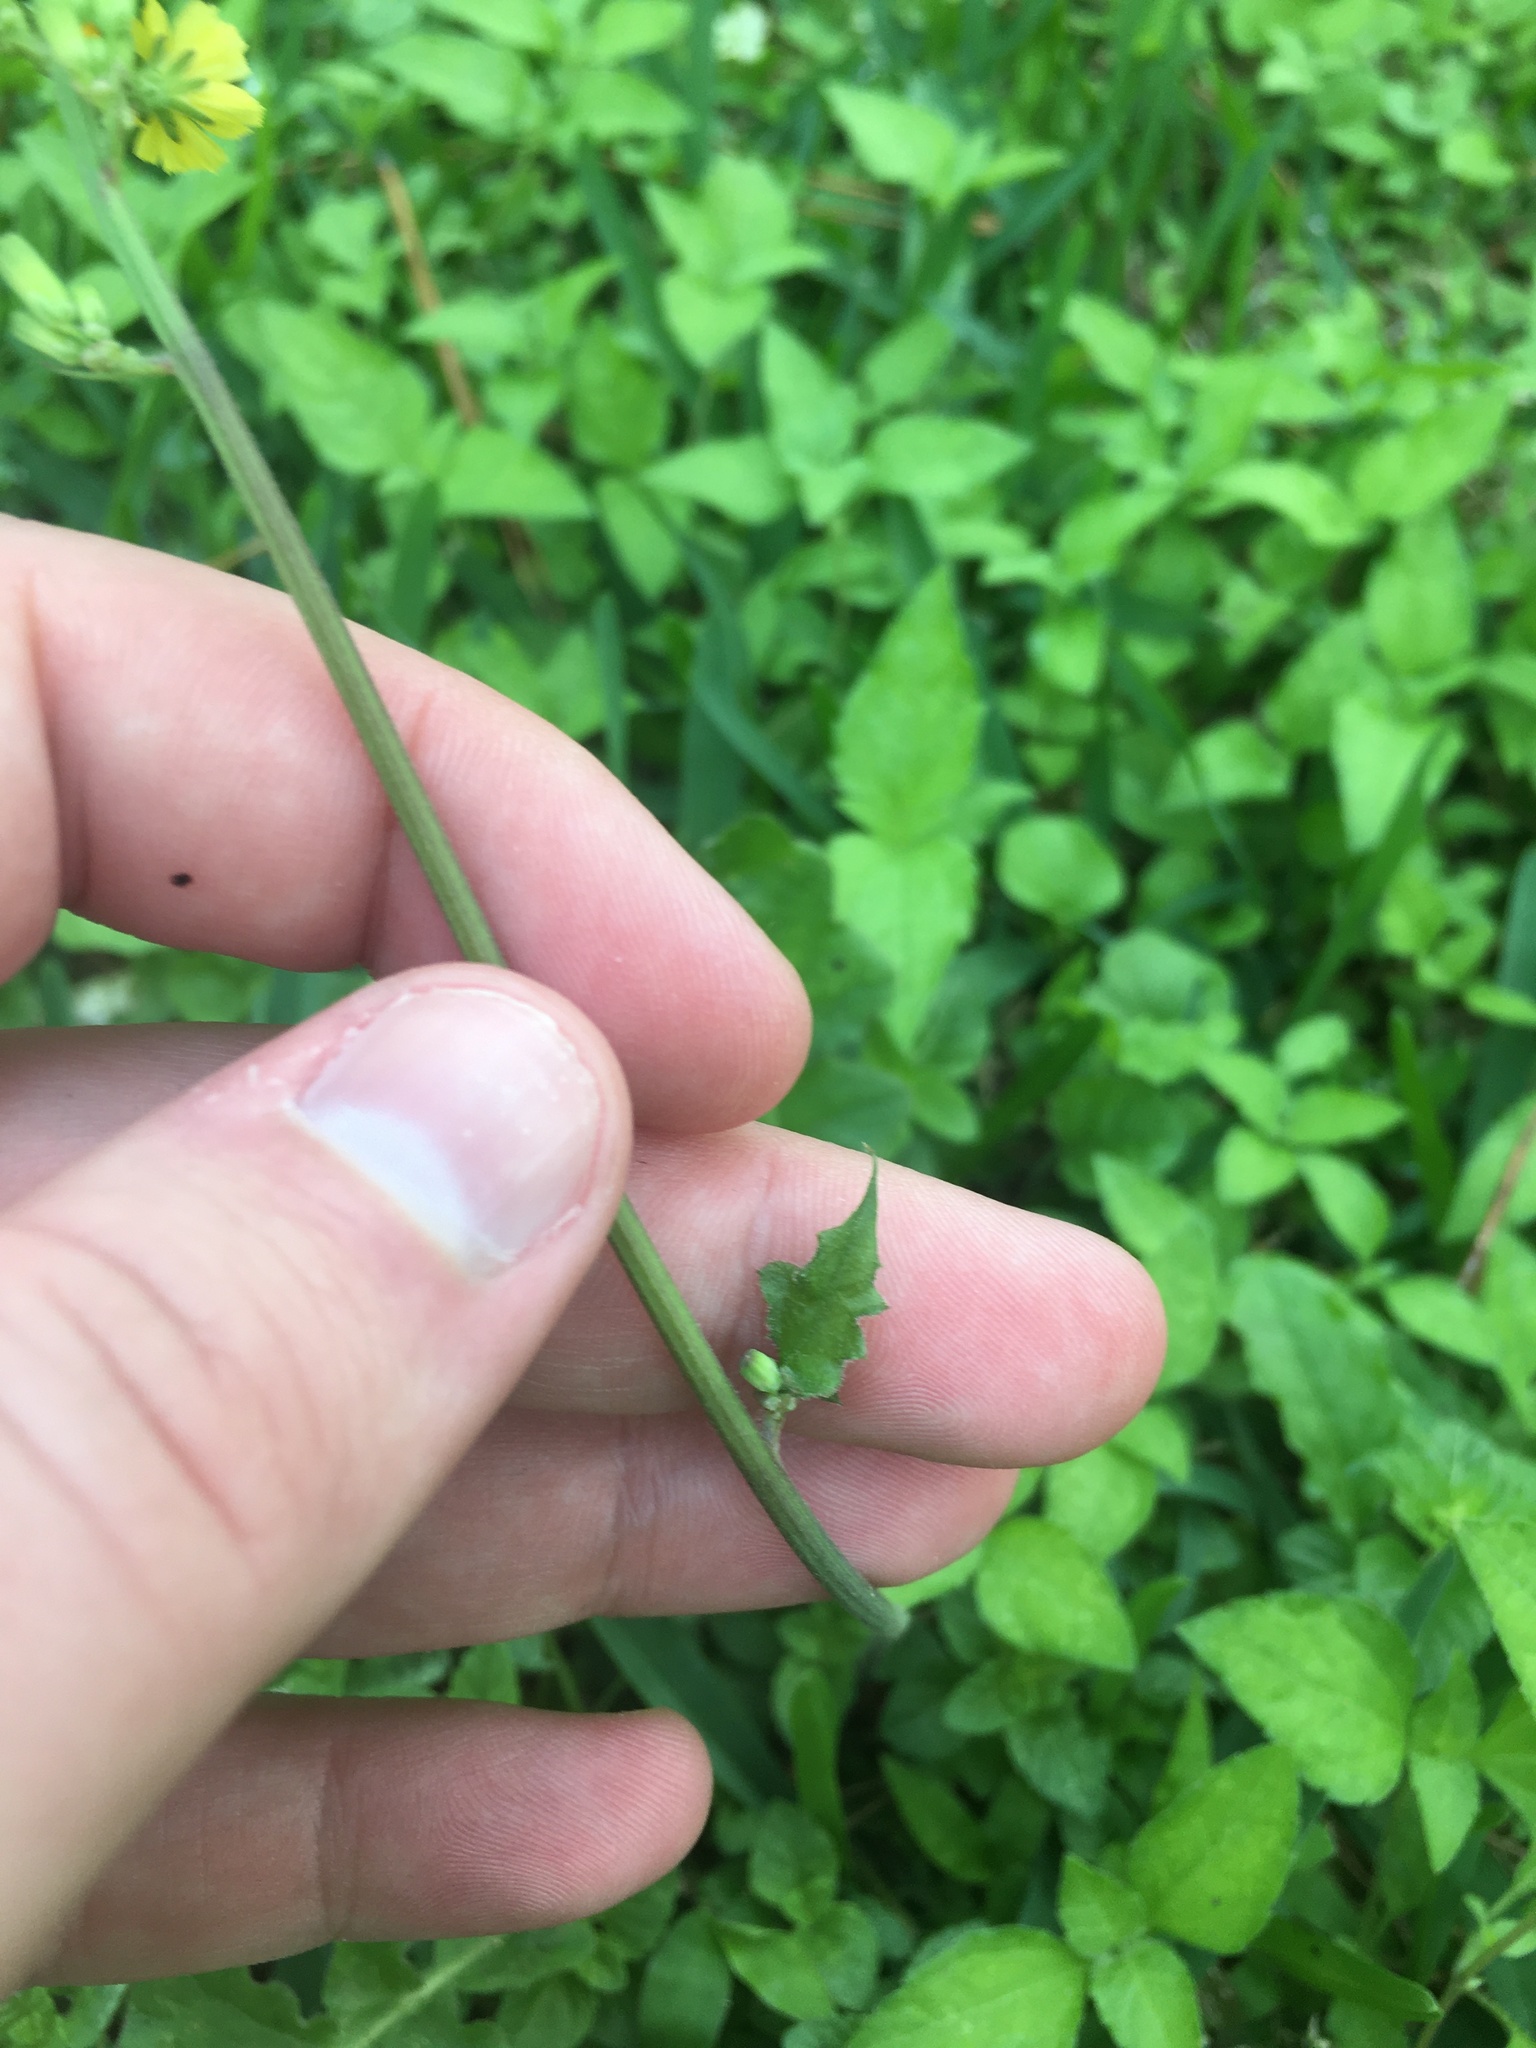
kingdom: Plantae
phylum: Tracheophyta
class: Magnoliopsida
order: Asterales
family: Asteraceae
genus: Youngia
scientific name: Youngia japonica
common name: Oriental false hawksbeard
